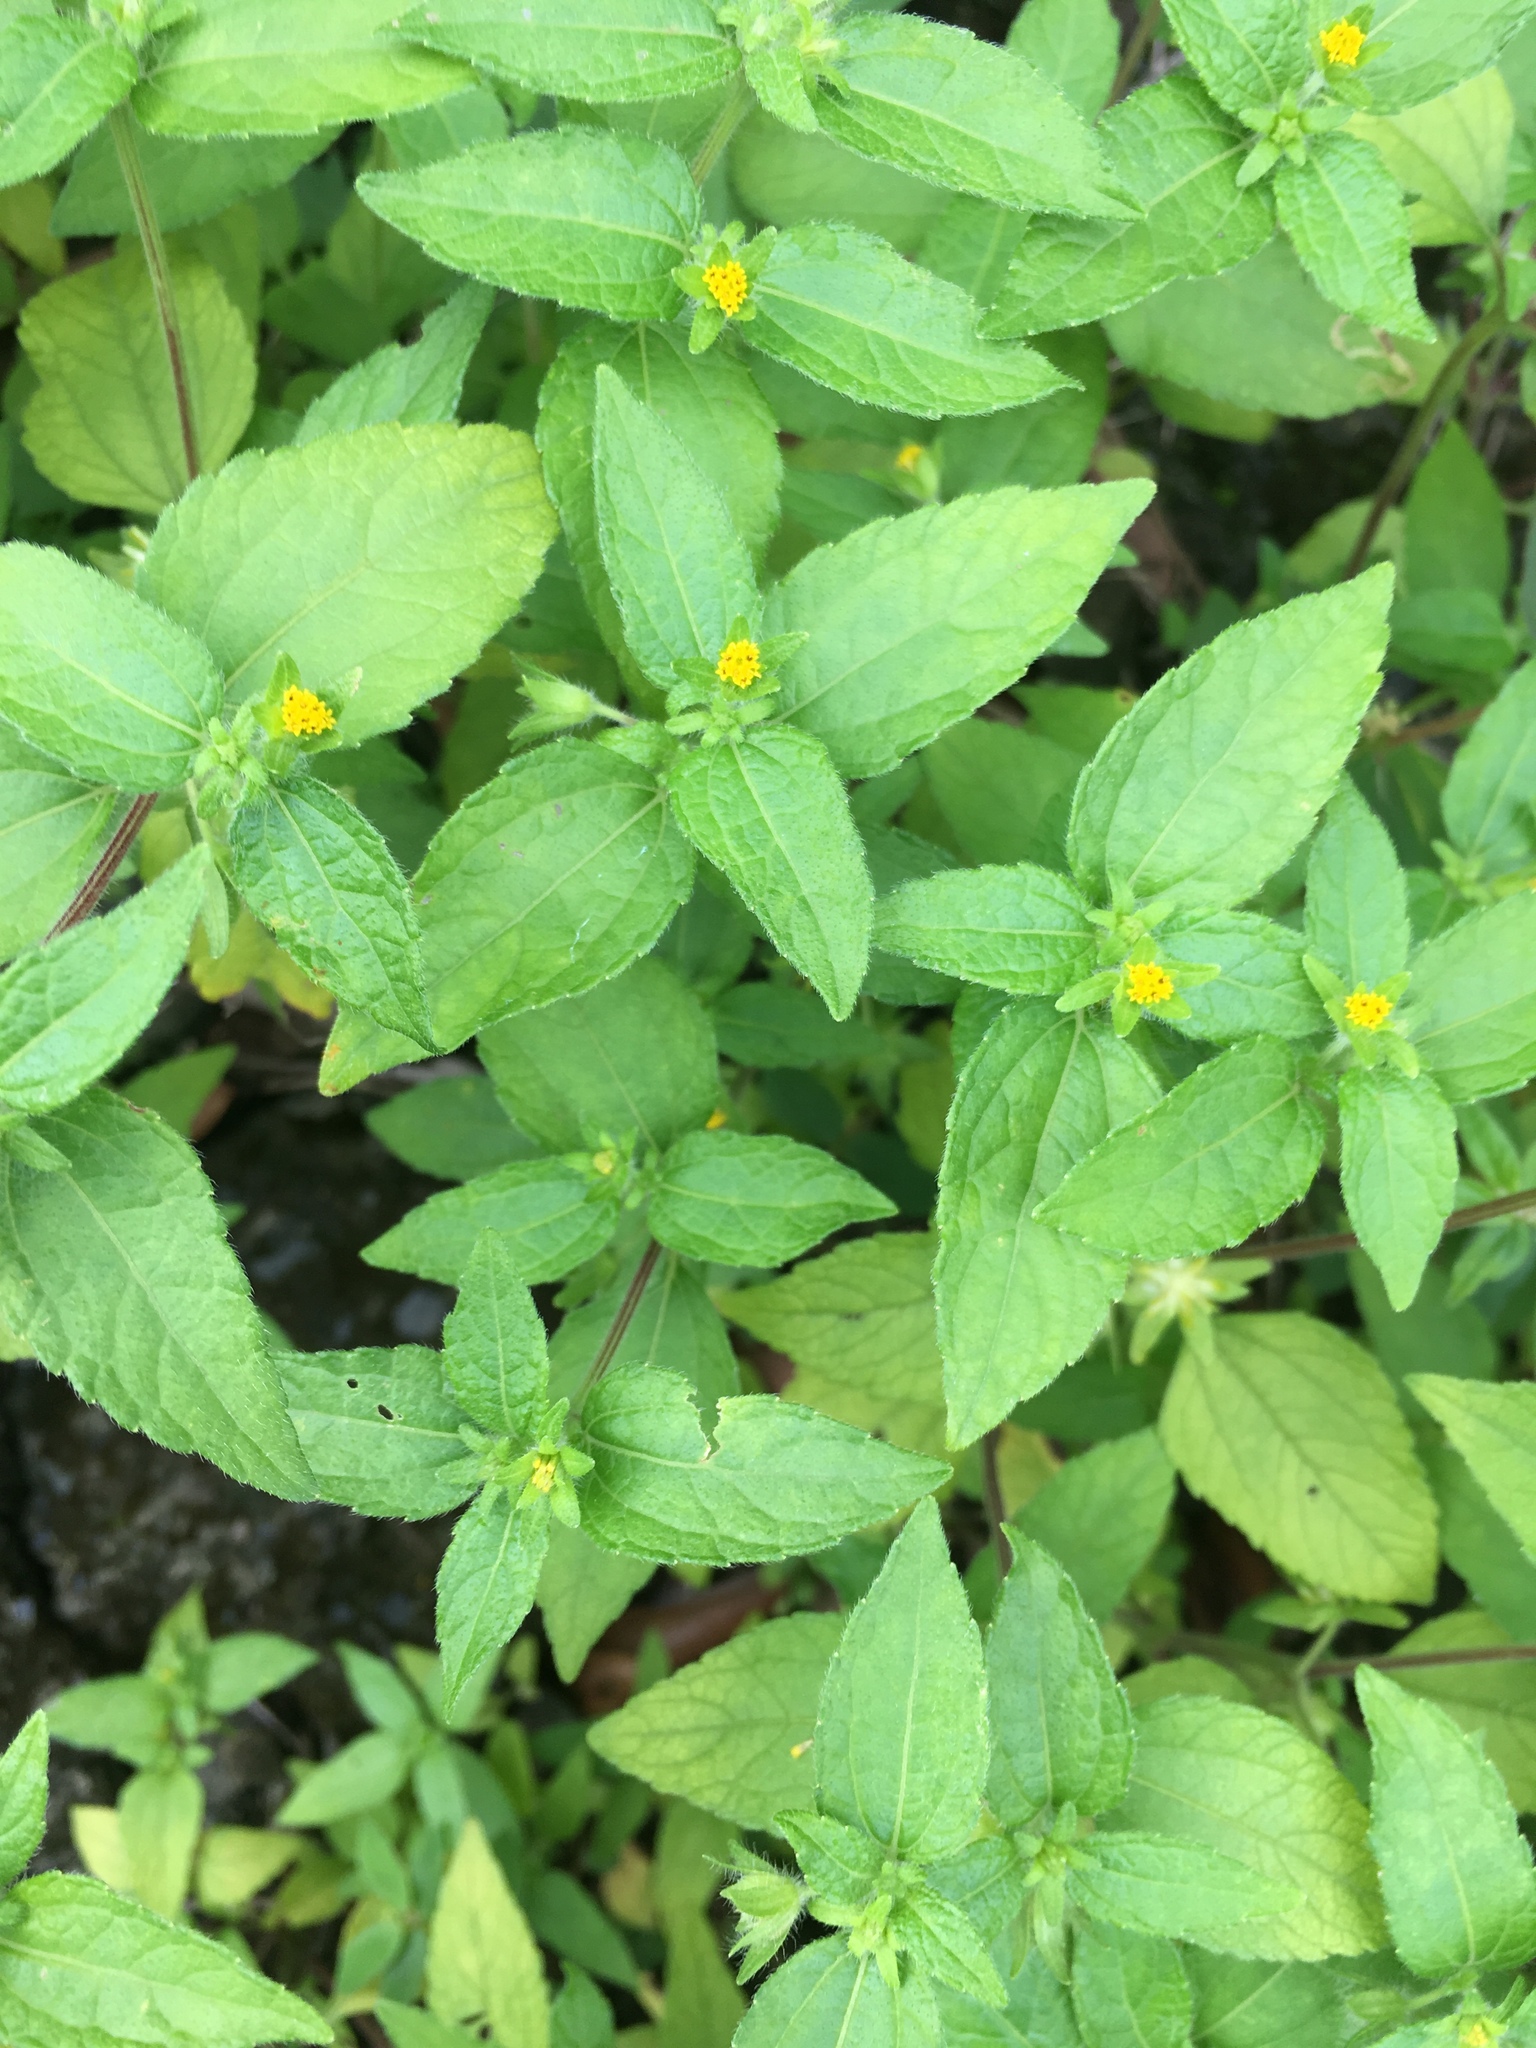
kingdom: Plantae
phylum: Tracheophyta
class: Magnoliopsida
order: Asterales
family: Asteraceae
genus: Eleutheranthera
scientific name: Eleutheranthera ruderalis
